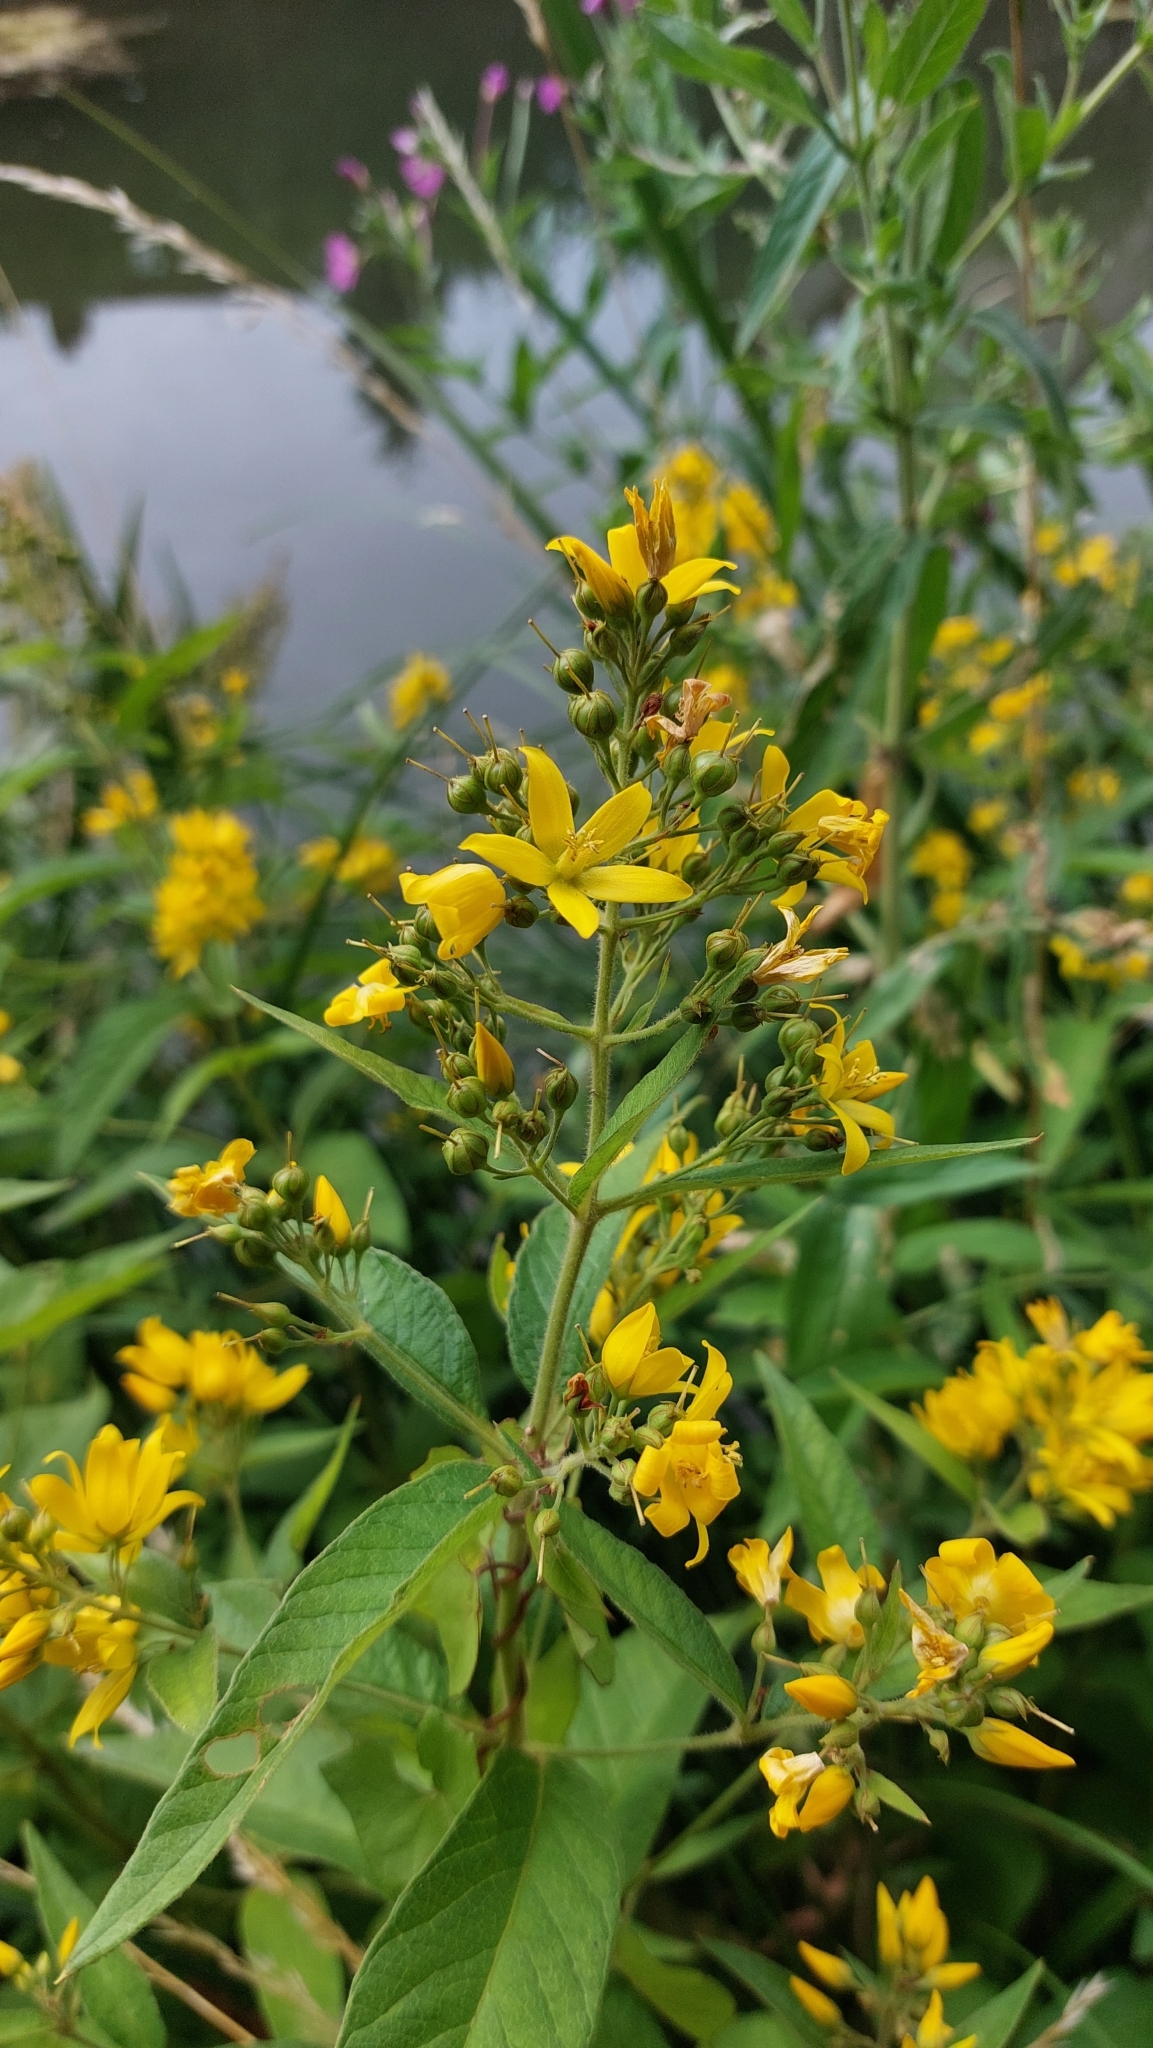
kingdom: Plantae
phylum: Tracheophyta
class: Magnoliopsida
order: Ericales
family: Primulaceae
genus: Lysimachia
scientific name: Lysimachia vulgaris
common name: Yellow loosestrife
